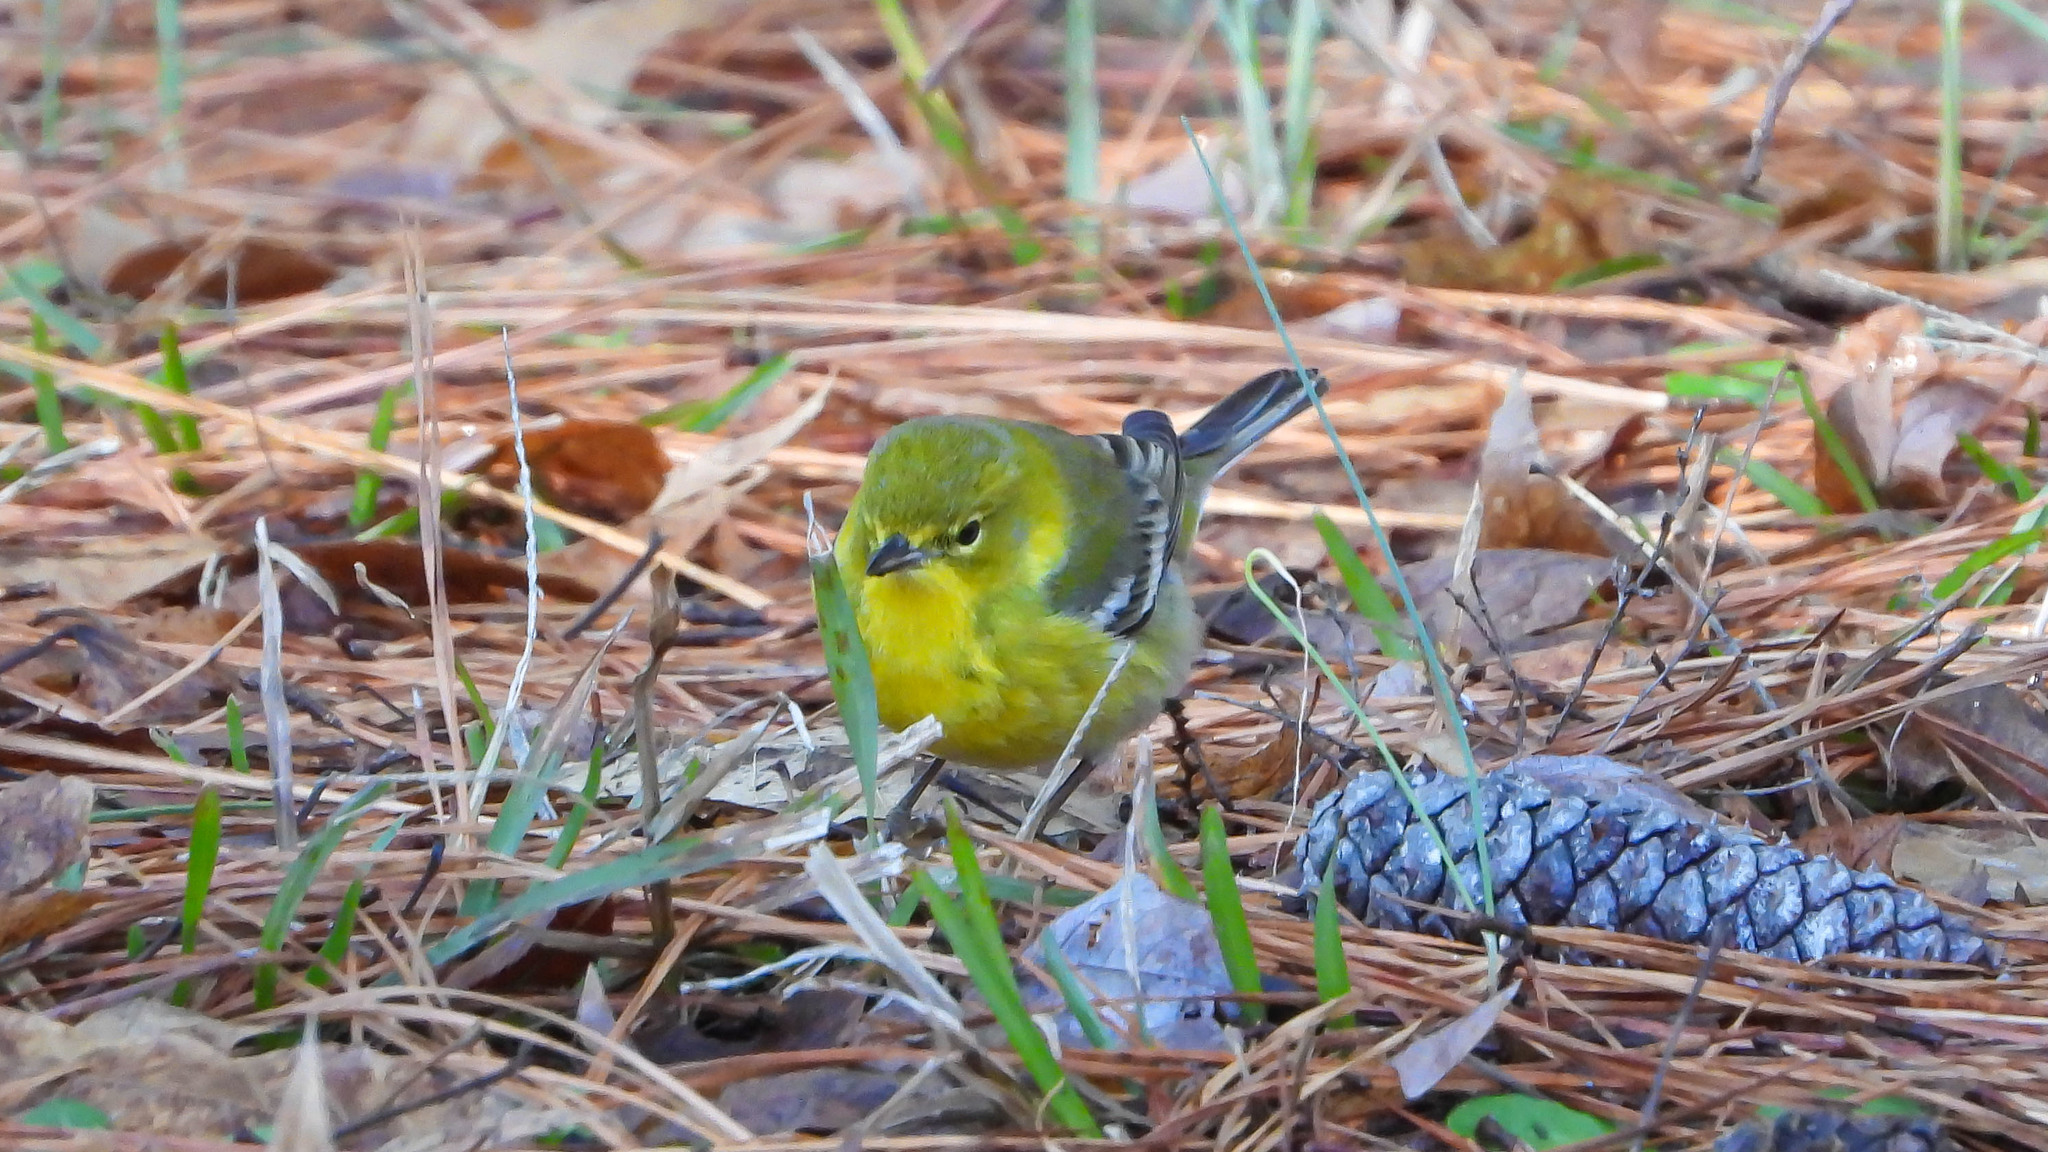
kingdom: Animalia
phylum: Chordata
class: Aves
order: Passeriformes
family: Parulidae
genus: Setophaga
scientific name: Setophaga pinus
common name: Pine warbler
